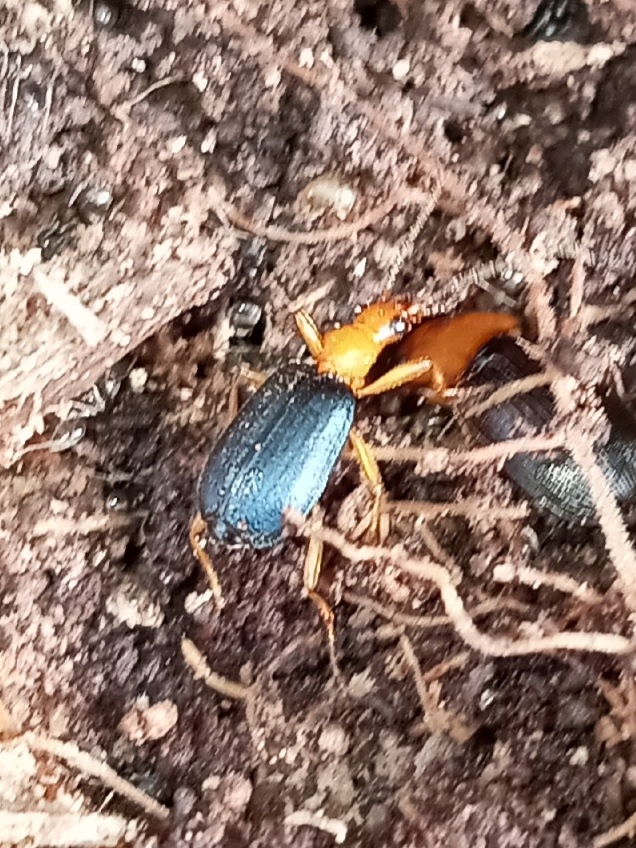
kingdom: Animalia
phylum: Arthropoda
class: Insecta
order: Coleoptera
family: Carabidae
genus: Lebia
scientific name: Lebia grandis
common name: Large foliage ground beetle
